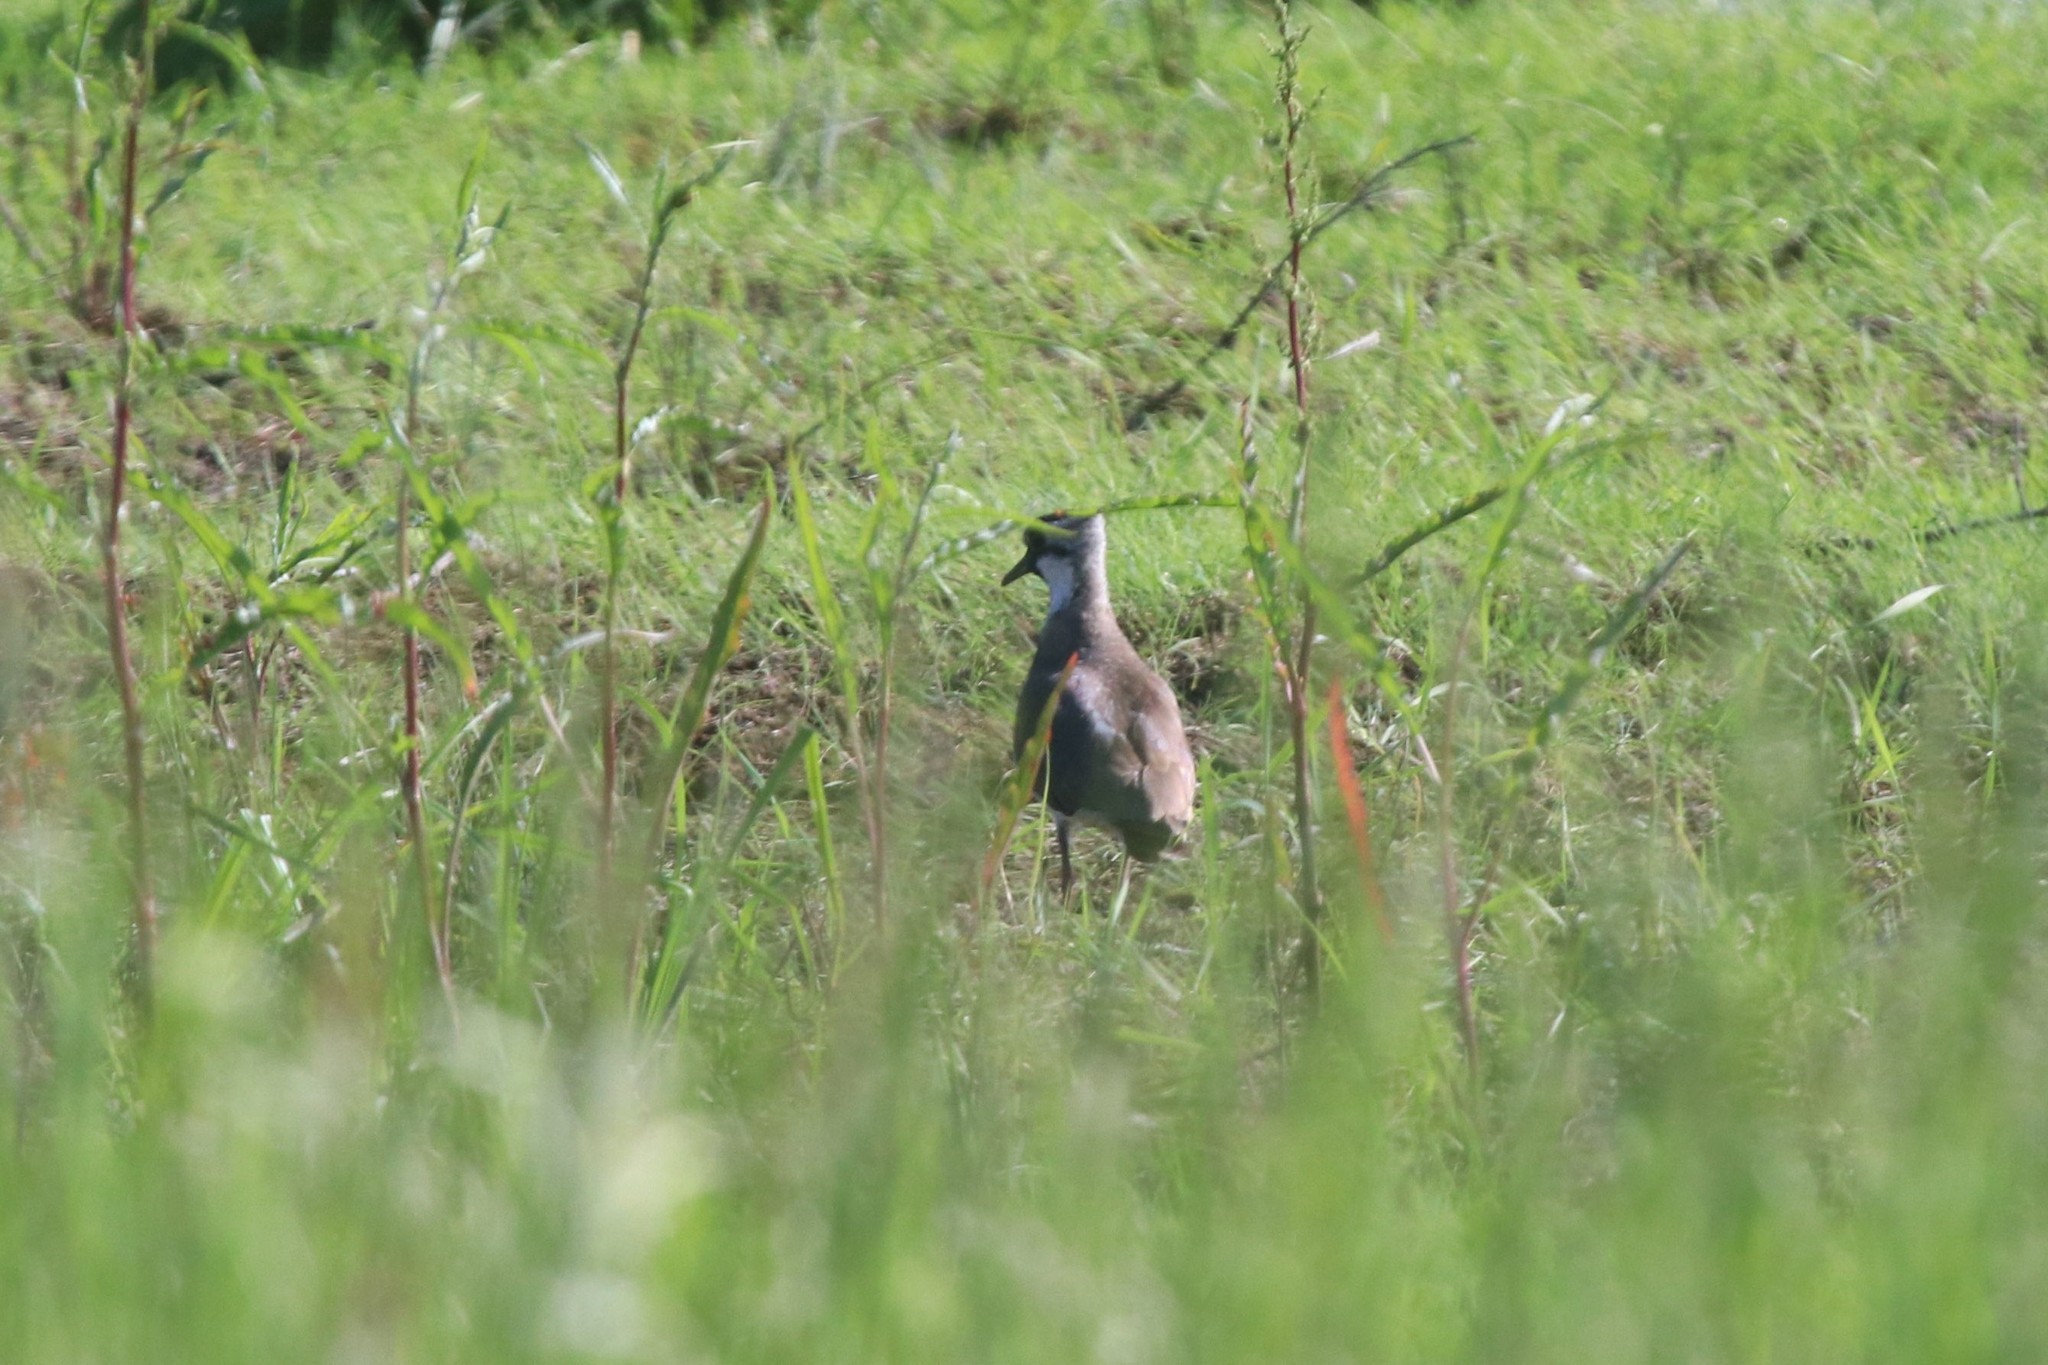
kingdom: Animalia
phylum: Chordata
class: Aves
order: Charadriiformes
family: Charadriidae
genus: Vanellus
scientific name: Vanellus vanellus
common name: Northern lapwing
